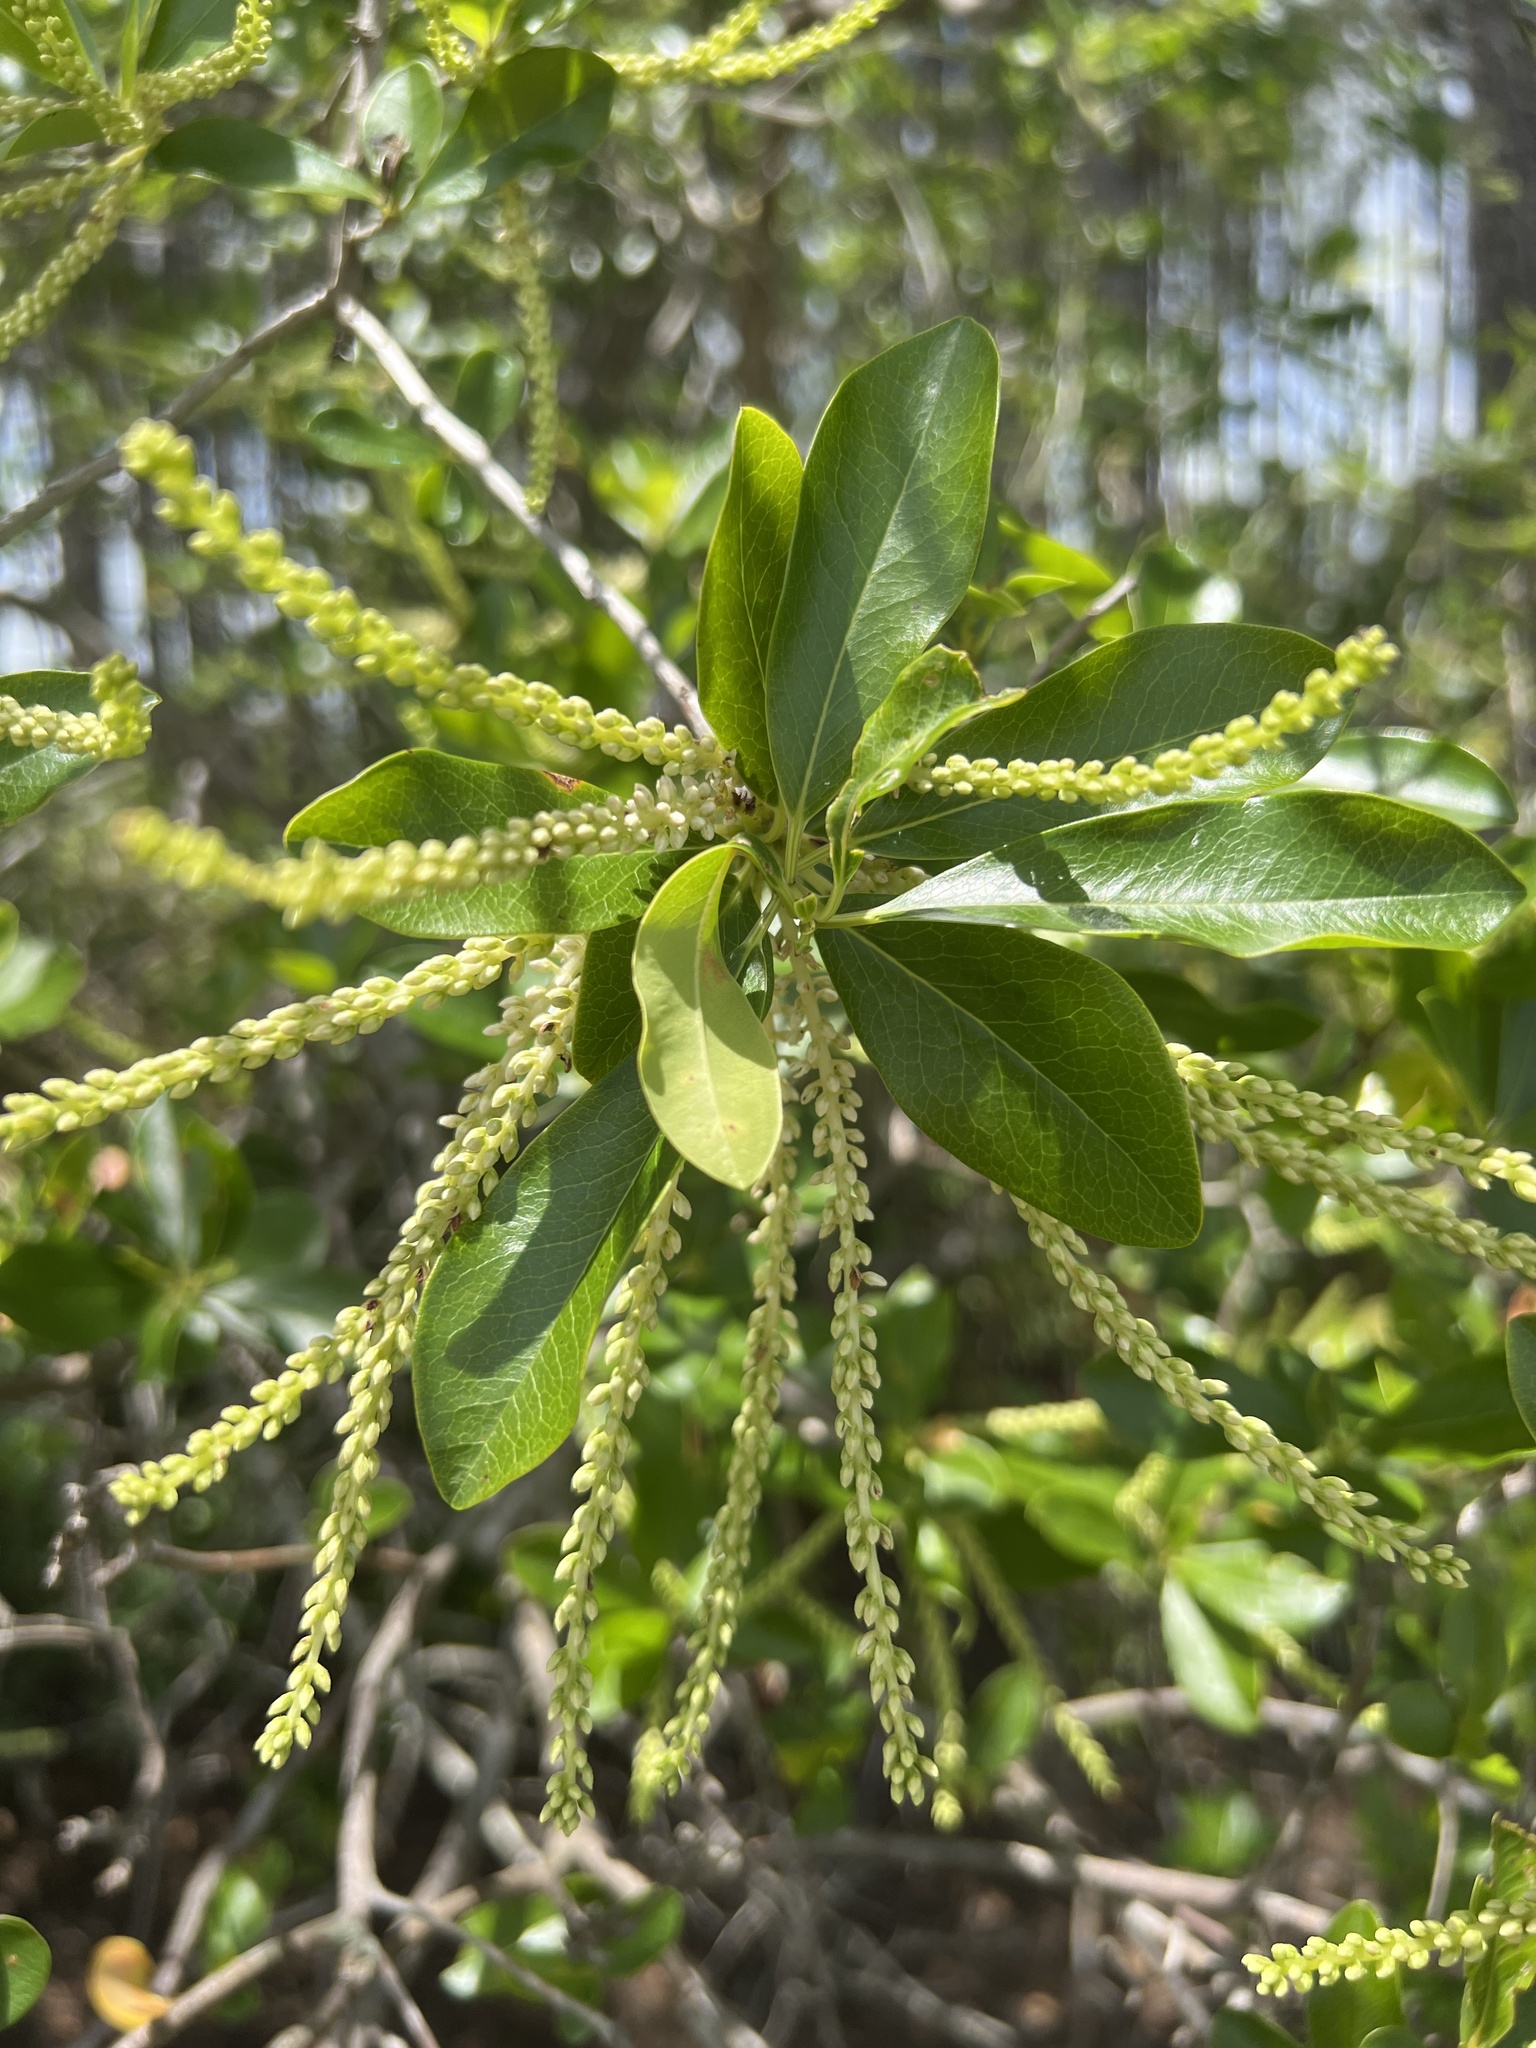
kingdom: Plantae
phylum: Tracheophyta
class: Magnoliopsida
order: Ericales
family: Cyrillaceae
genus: Cyrilla
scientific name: Cyrilla racemiflora
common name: Black titi
